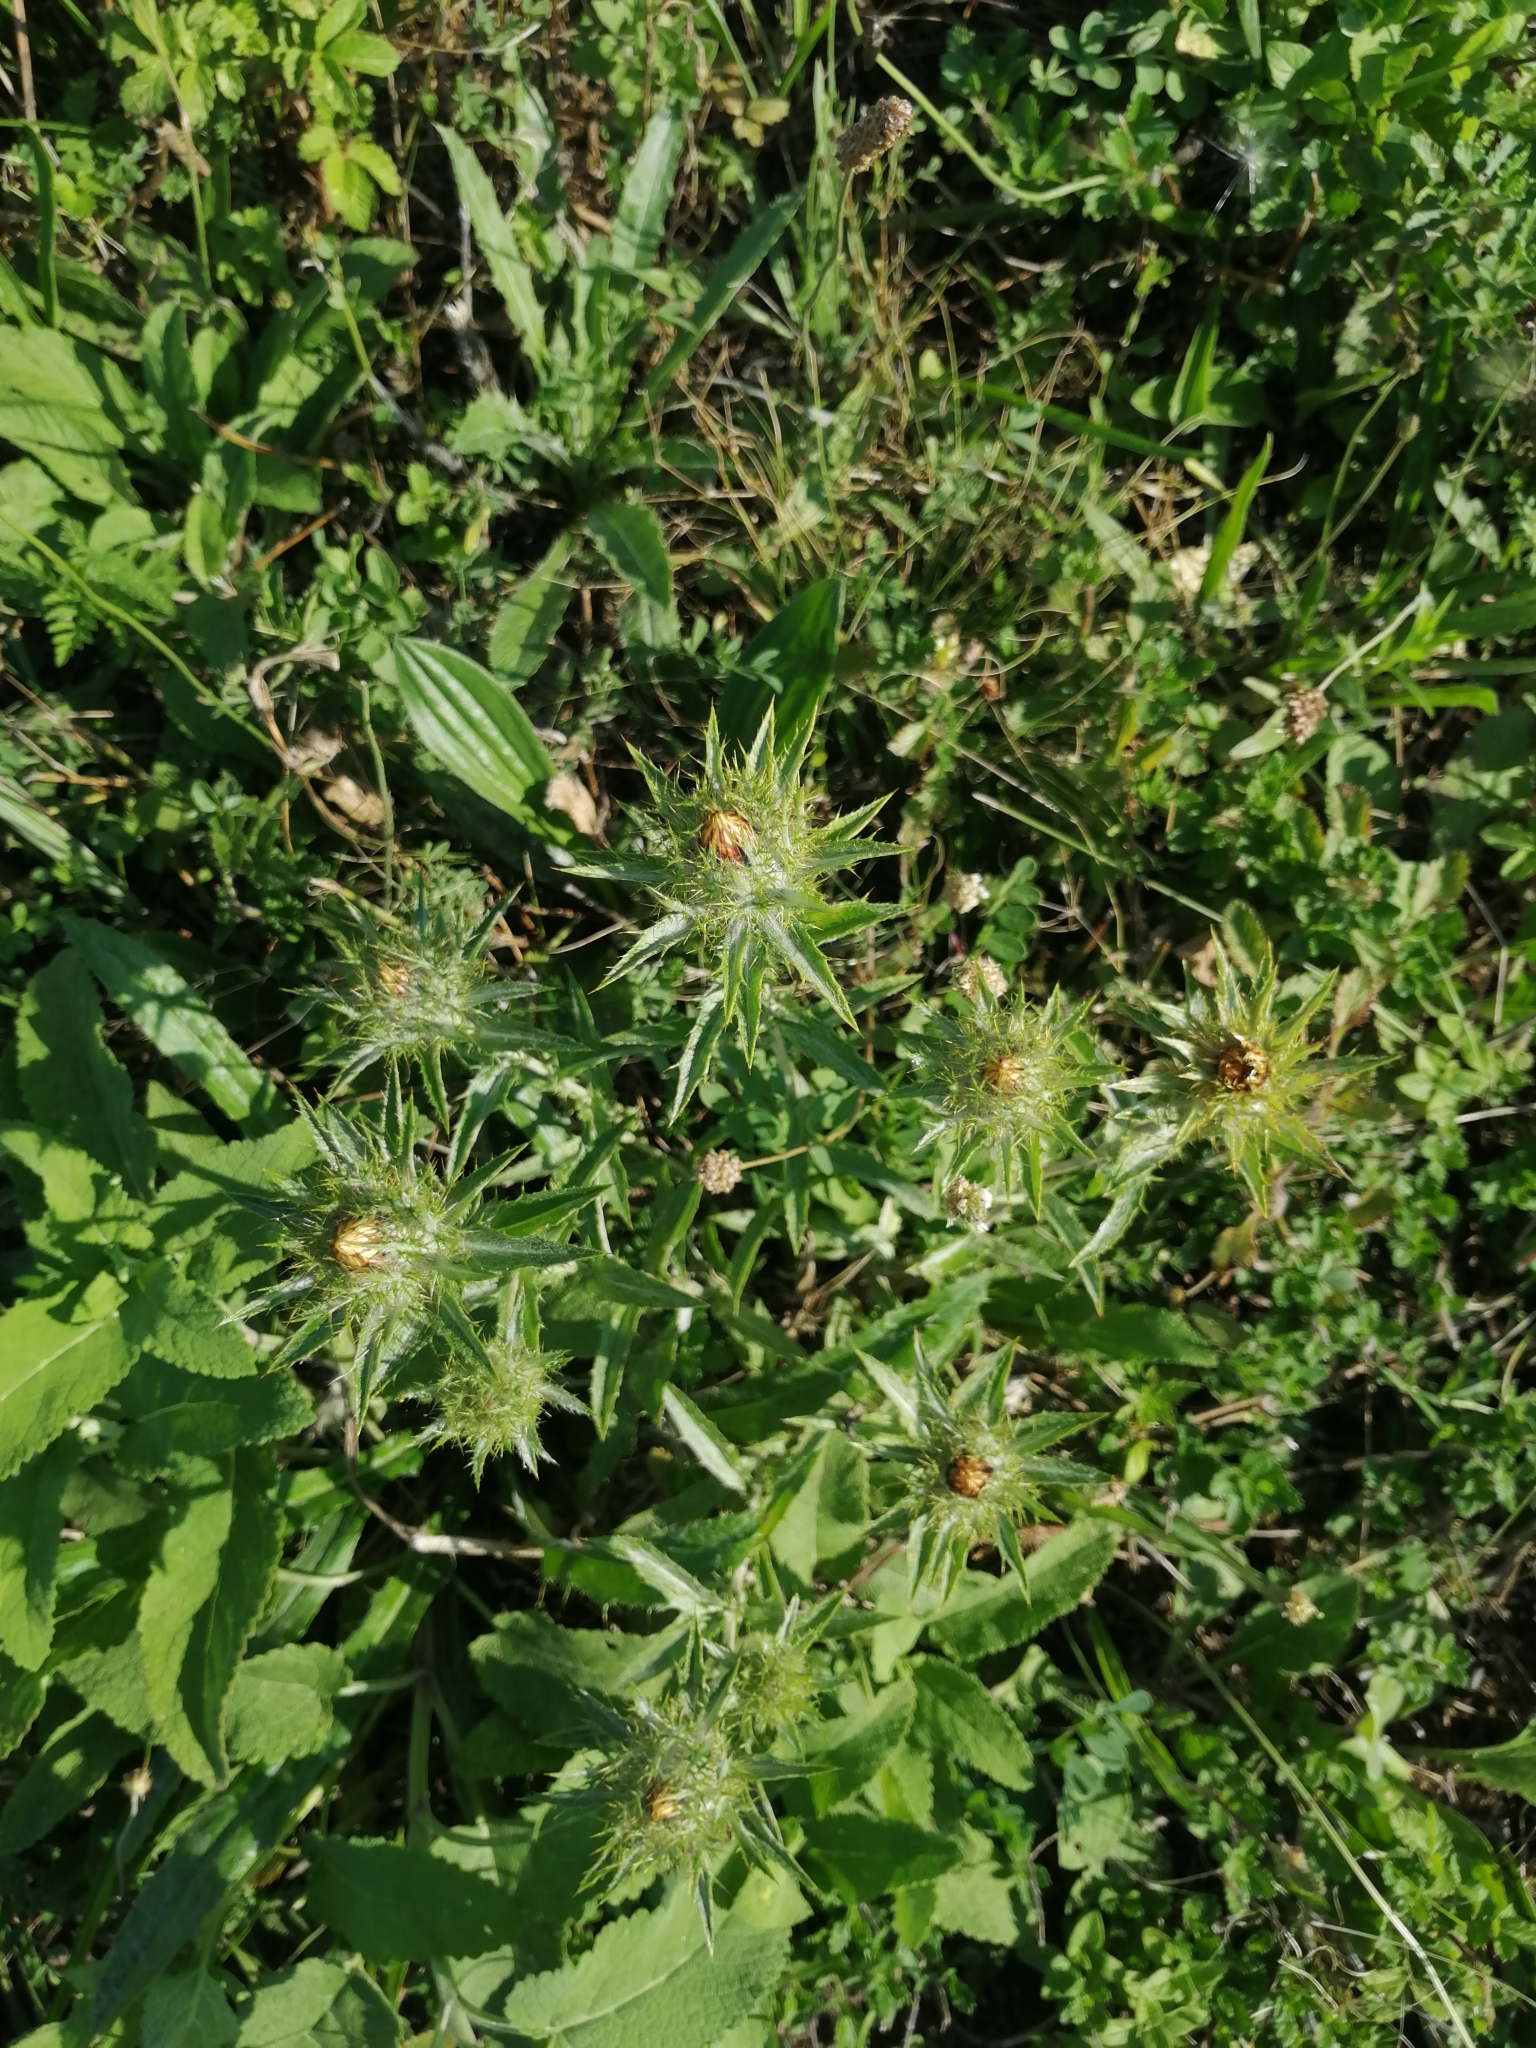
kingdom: Plantae
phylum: Tracheophyta
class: Magnoliopsida
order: Asterales
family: Asteraceae
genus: Carlina
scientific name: Carlina biebersteinii
